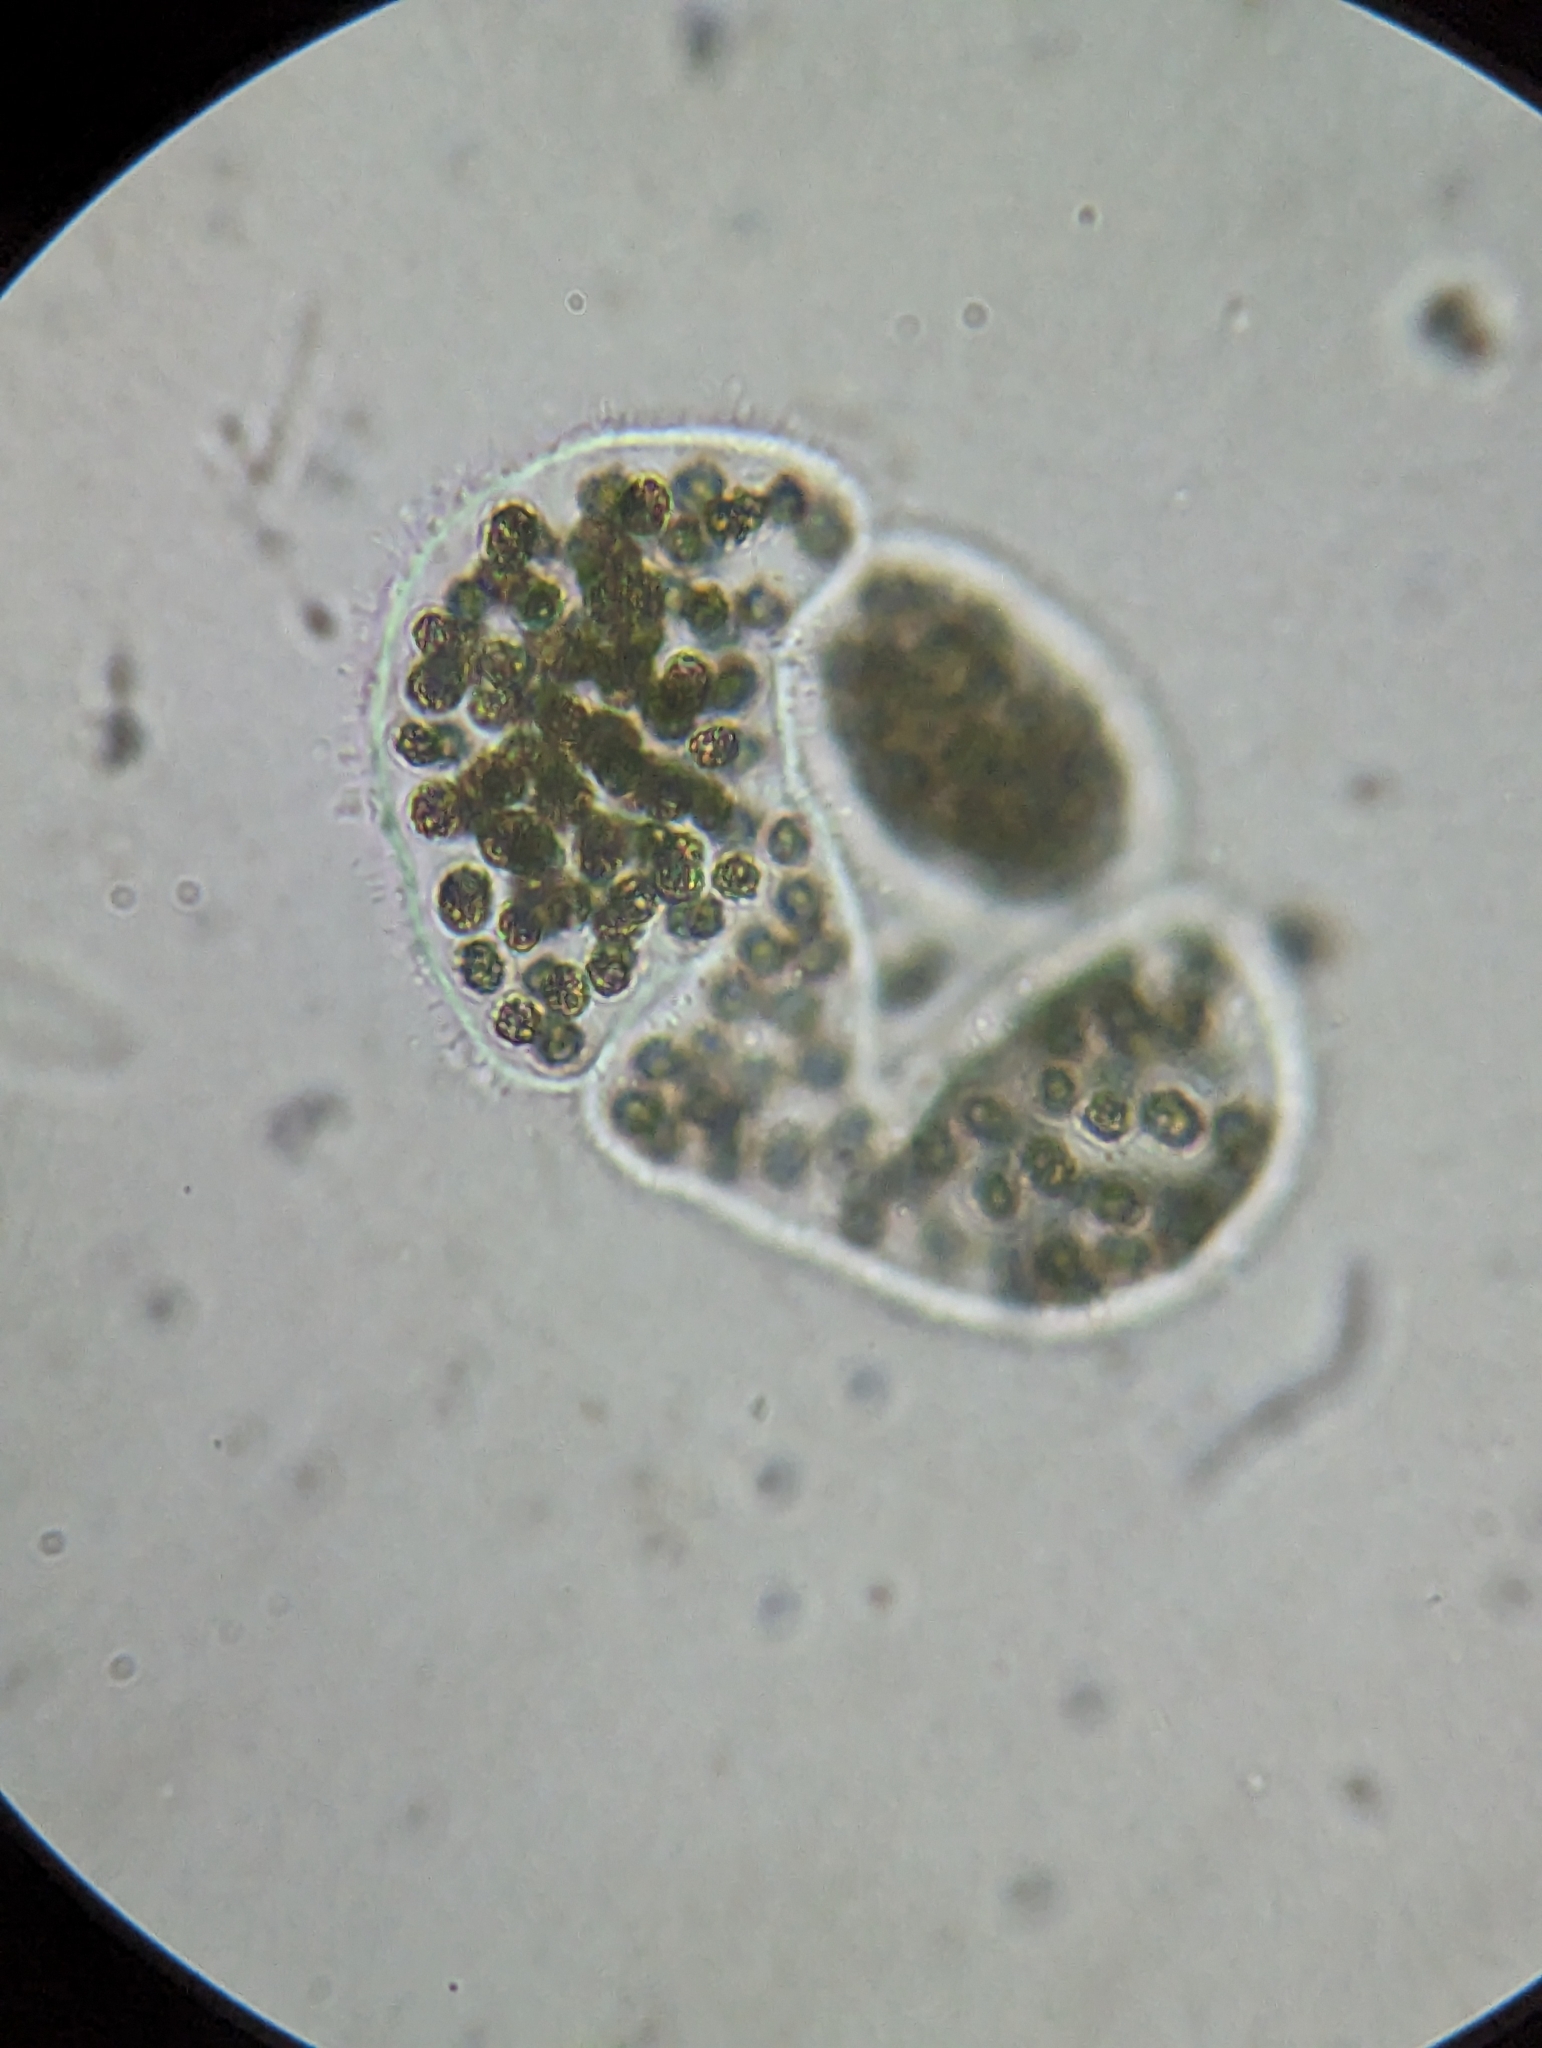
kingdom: Bacteria
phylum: Cyanobacteria
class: Cyanobacteriia
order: Cyanobacteriales
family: Microcystaceae
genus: Microcystis
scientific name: Microcystis wesenbergii
